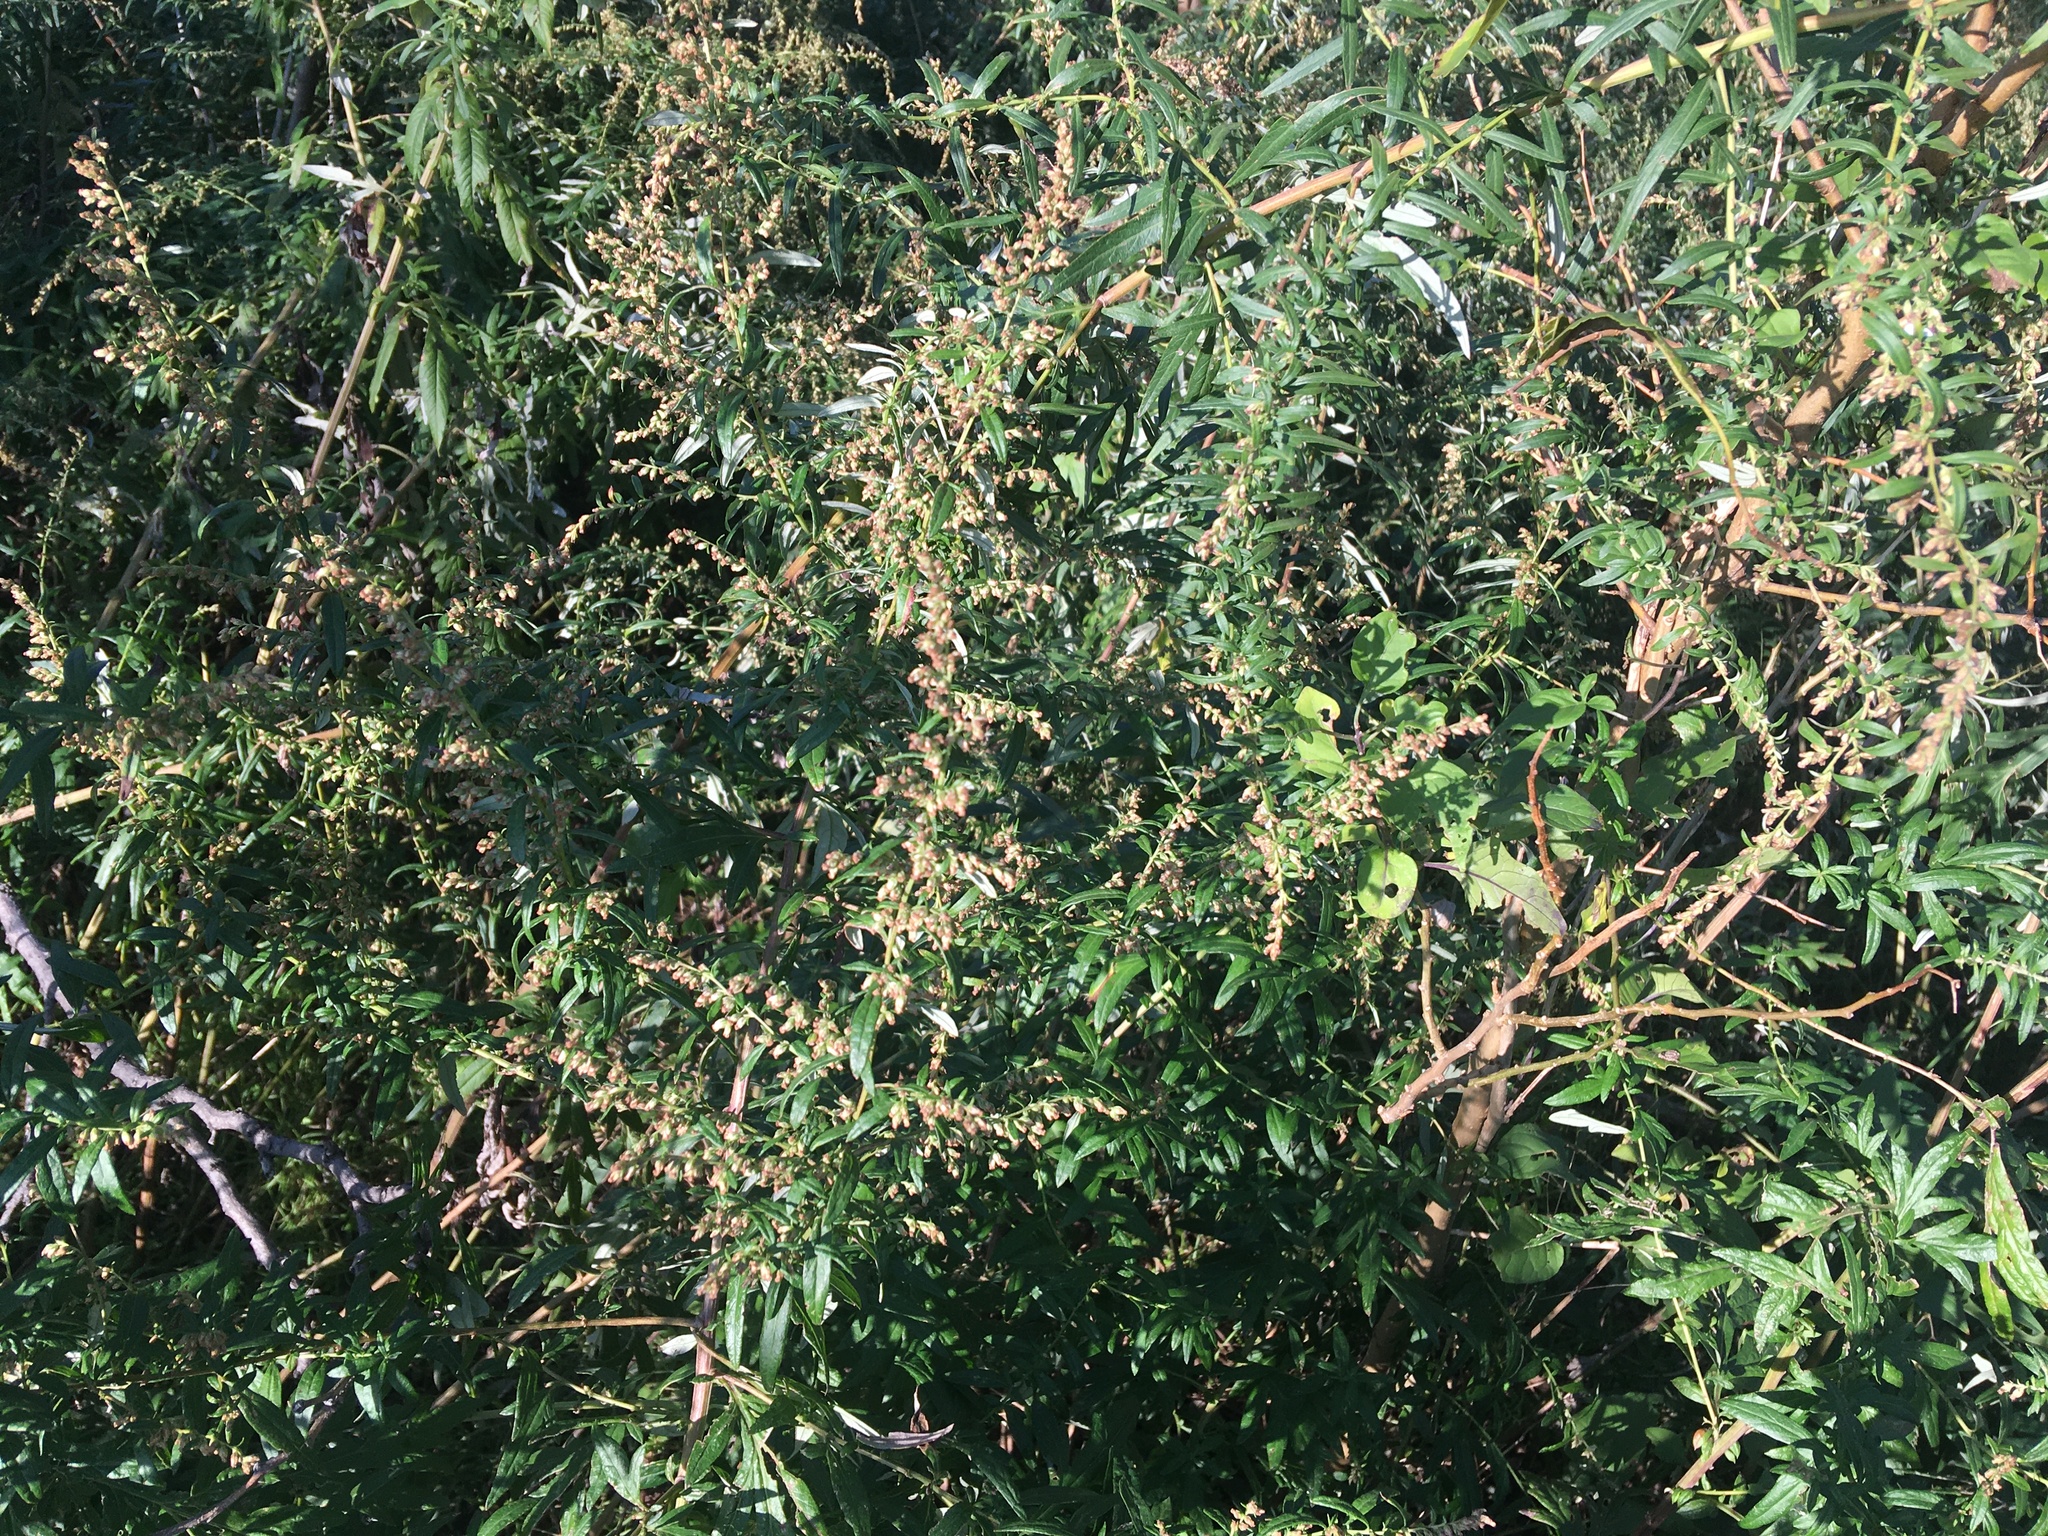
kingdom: Plantae
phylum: Tracheophyta
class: Magnoliopsida
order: Asterales
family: Asteraceae
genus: Artemisia
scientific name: Artemisia vulgaris
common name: Mugwort
